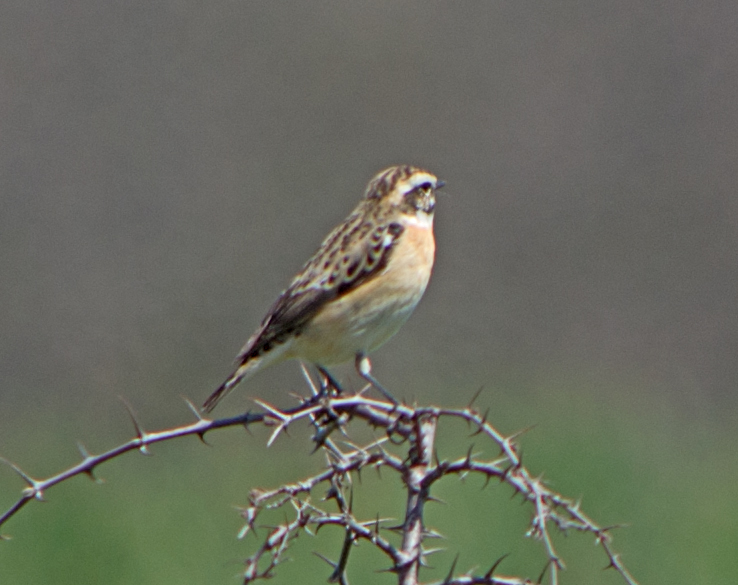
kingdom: Animalia
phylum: Chordata
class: Aves
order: Passeriformes
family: Muscicapidae
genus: Saxicola
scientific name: Saxicola rubetra
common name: Whinchat
